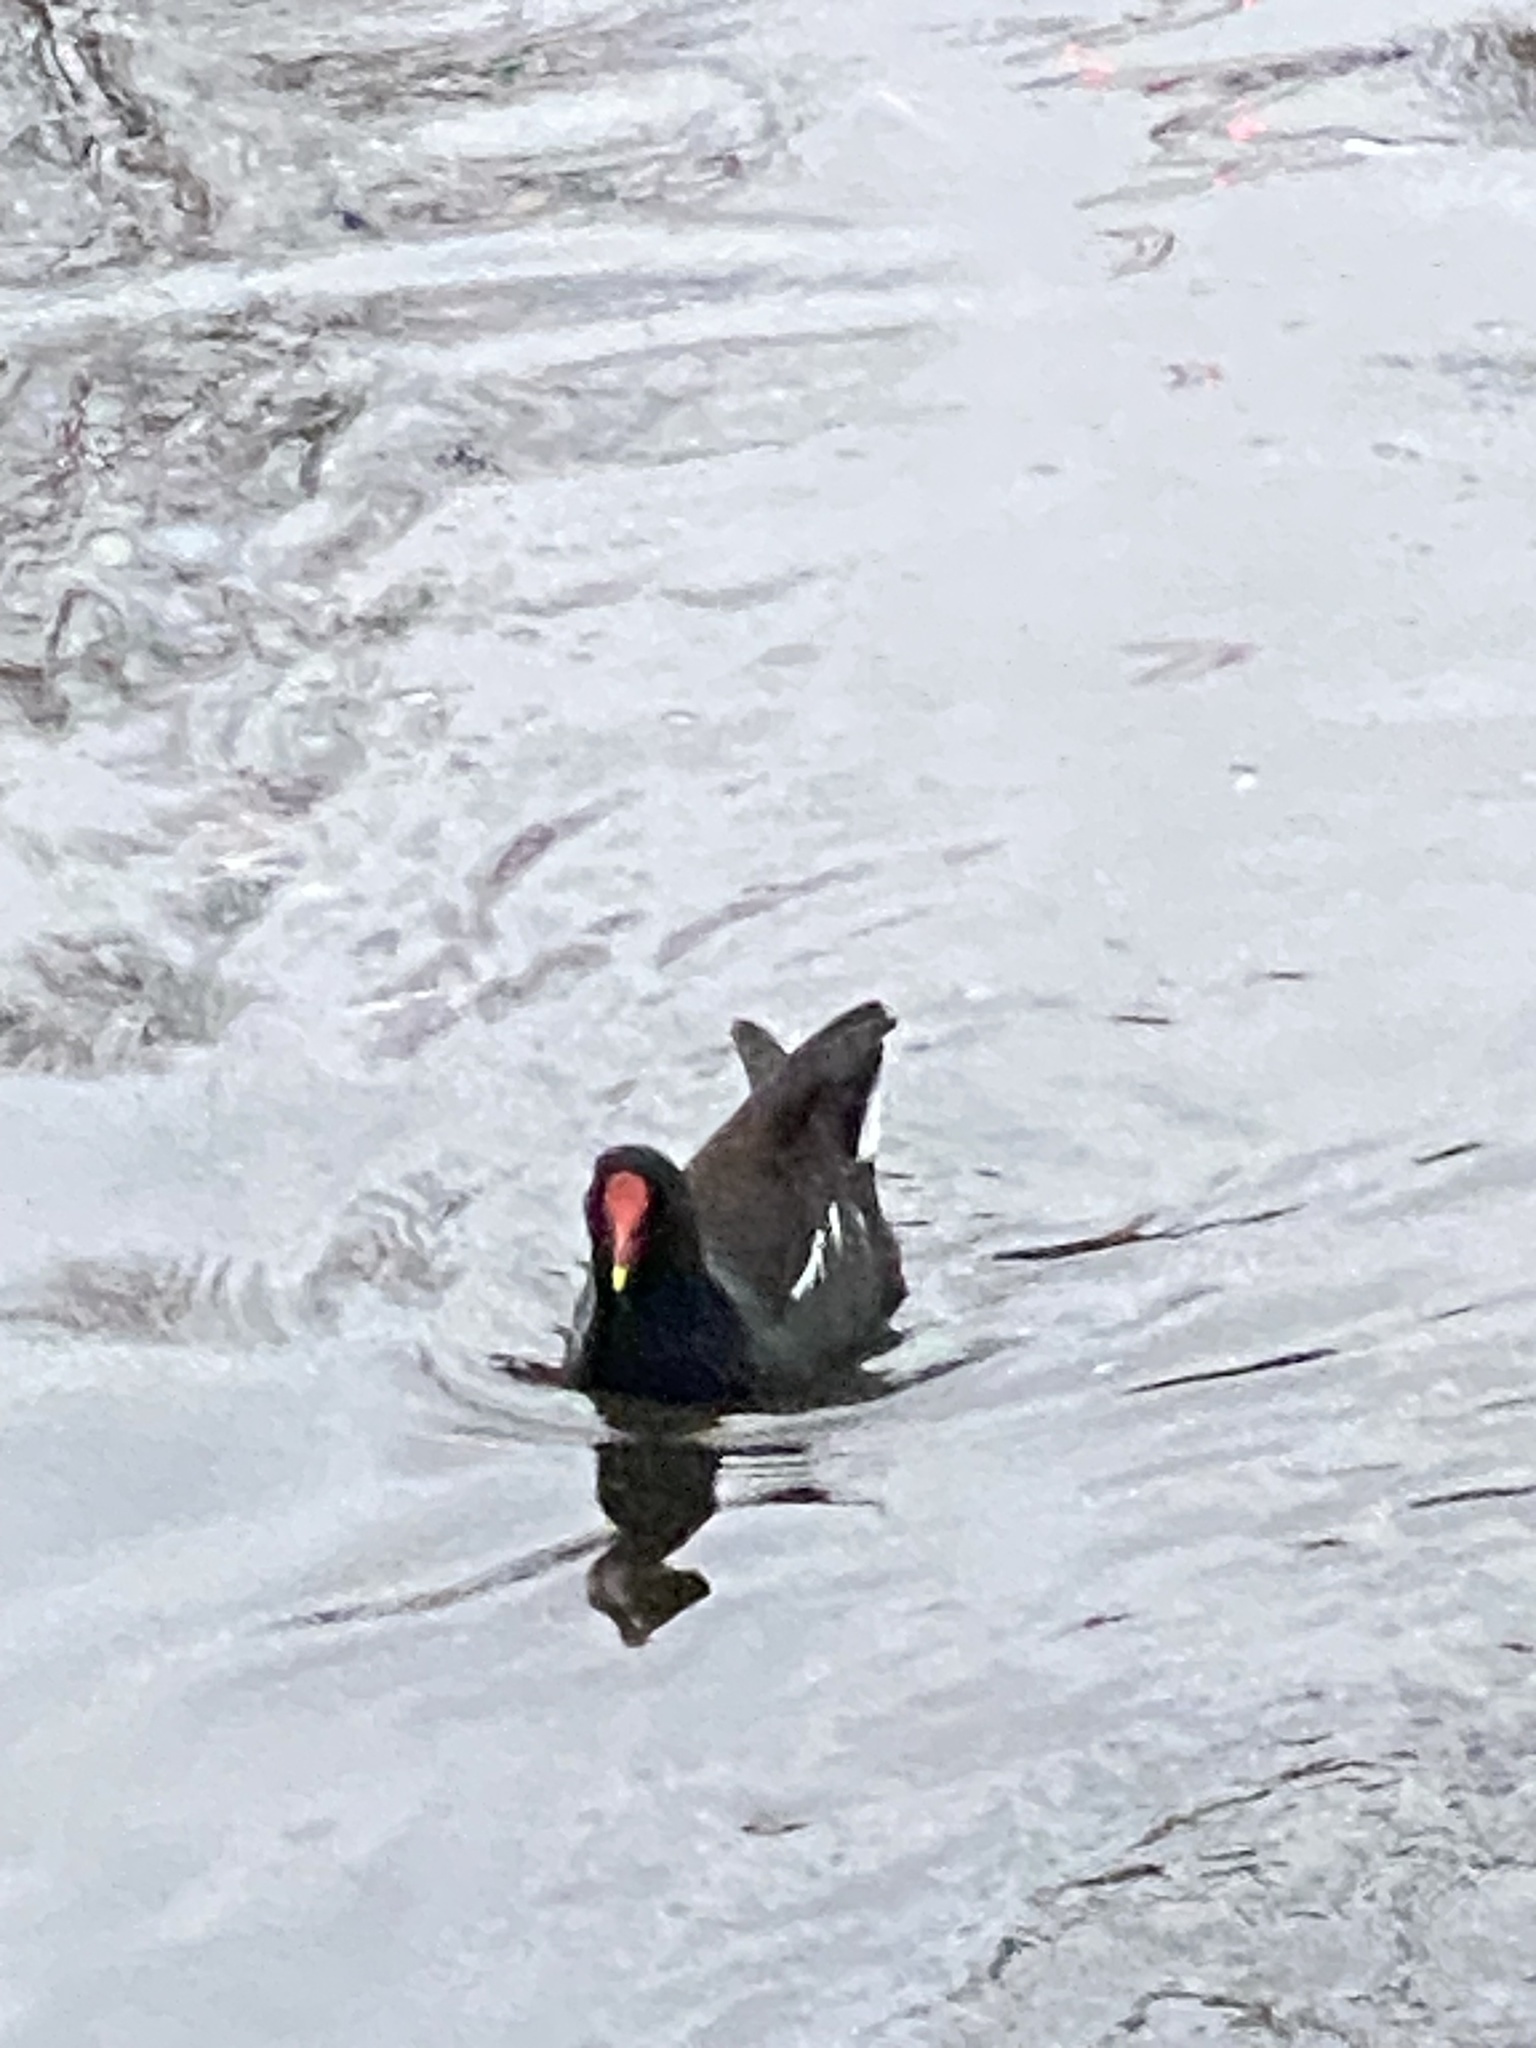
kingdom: Animalia
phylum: Chordata
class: Aves
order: Gruiformes
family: Rallidae
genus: Gallinula
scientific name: Gallinula chloropus
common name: Common moorhen
